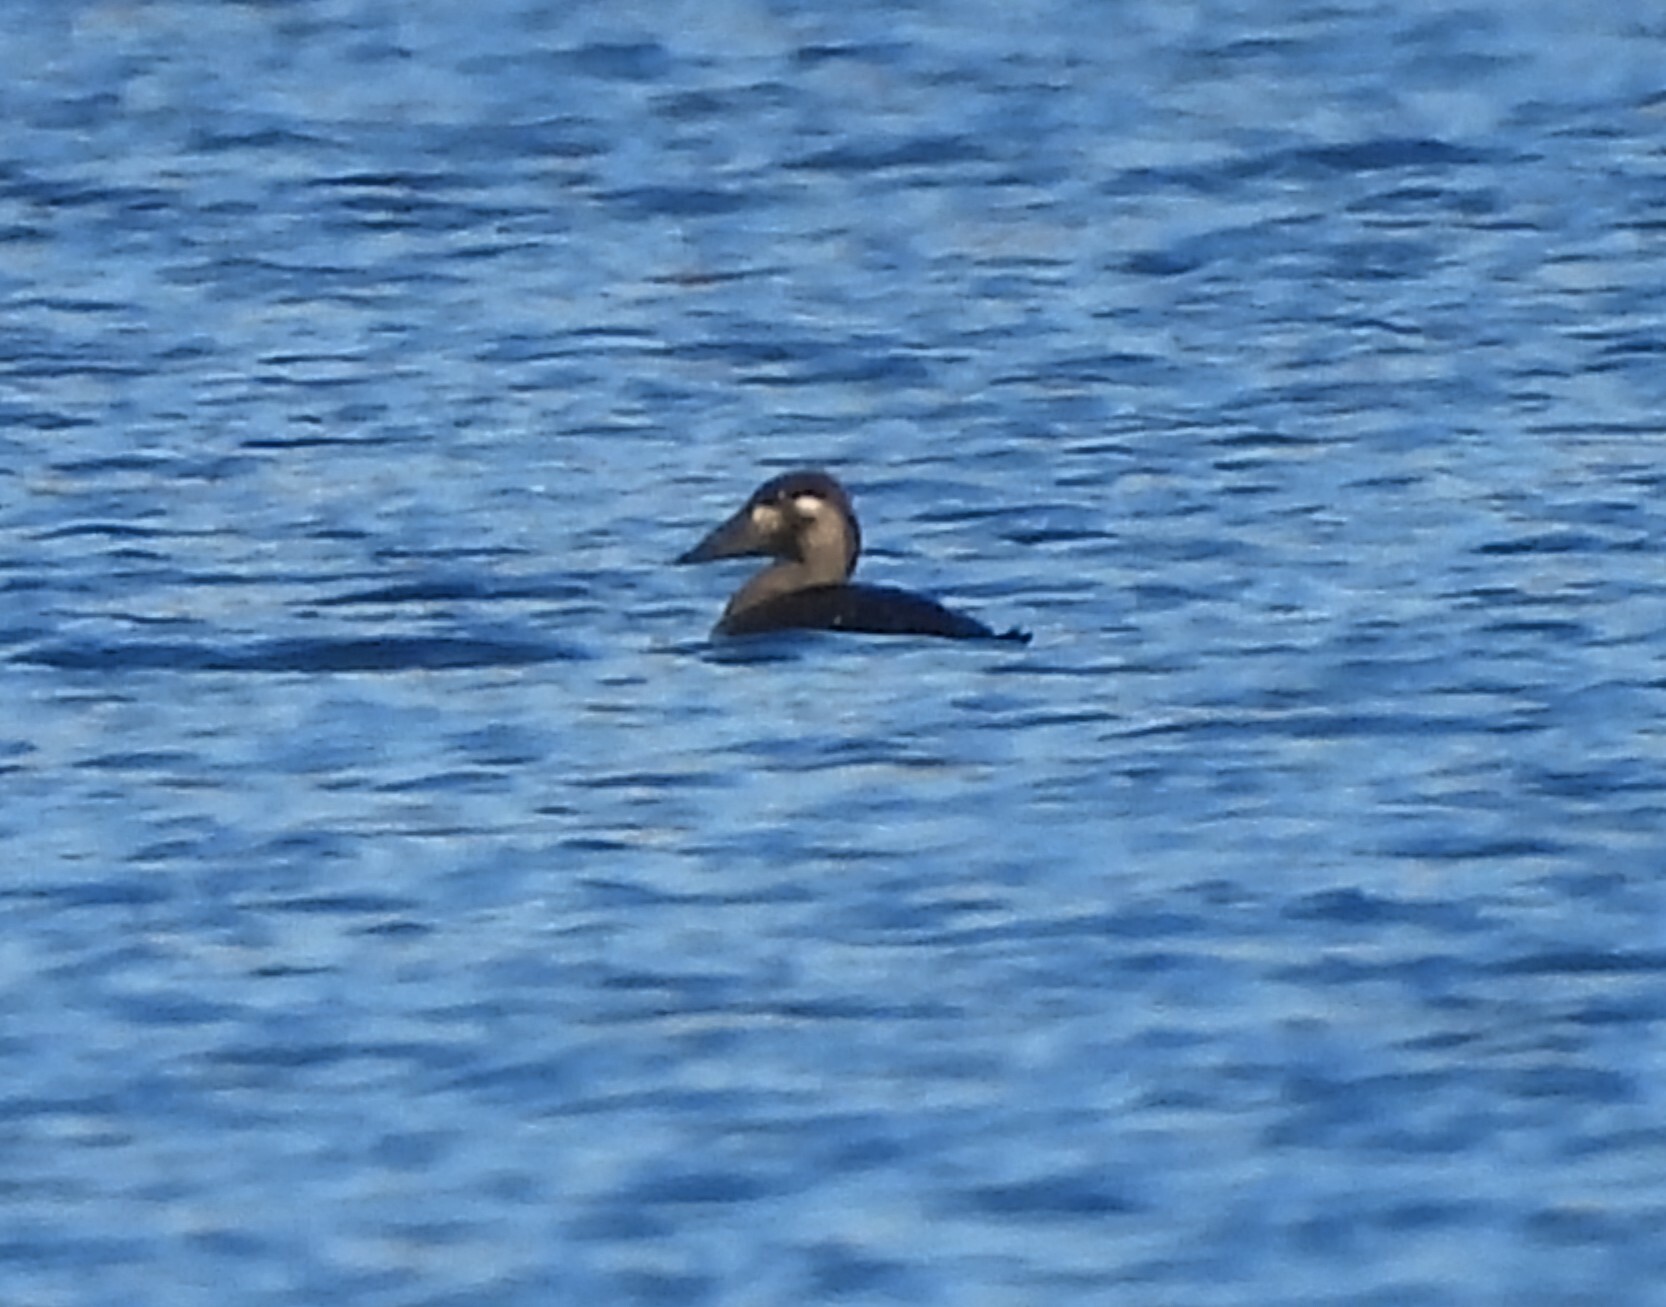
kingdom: Animalia
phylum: Chordata
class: Aves
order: Anseriformes
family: Anatidae
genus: Melanitta
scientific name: Melanitta perspicillata
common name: Surf scoter
